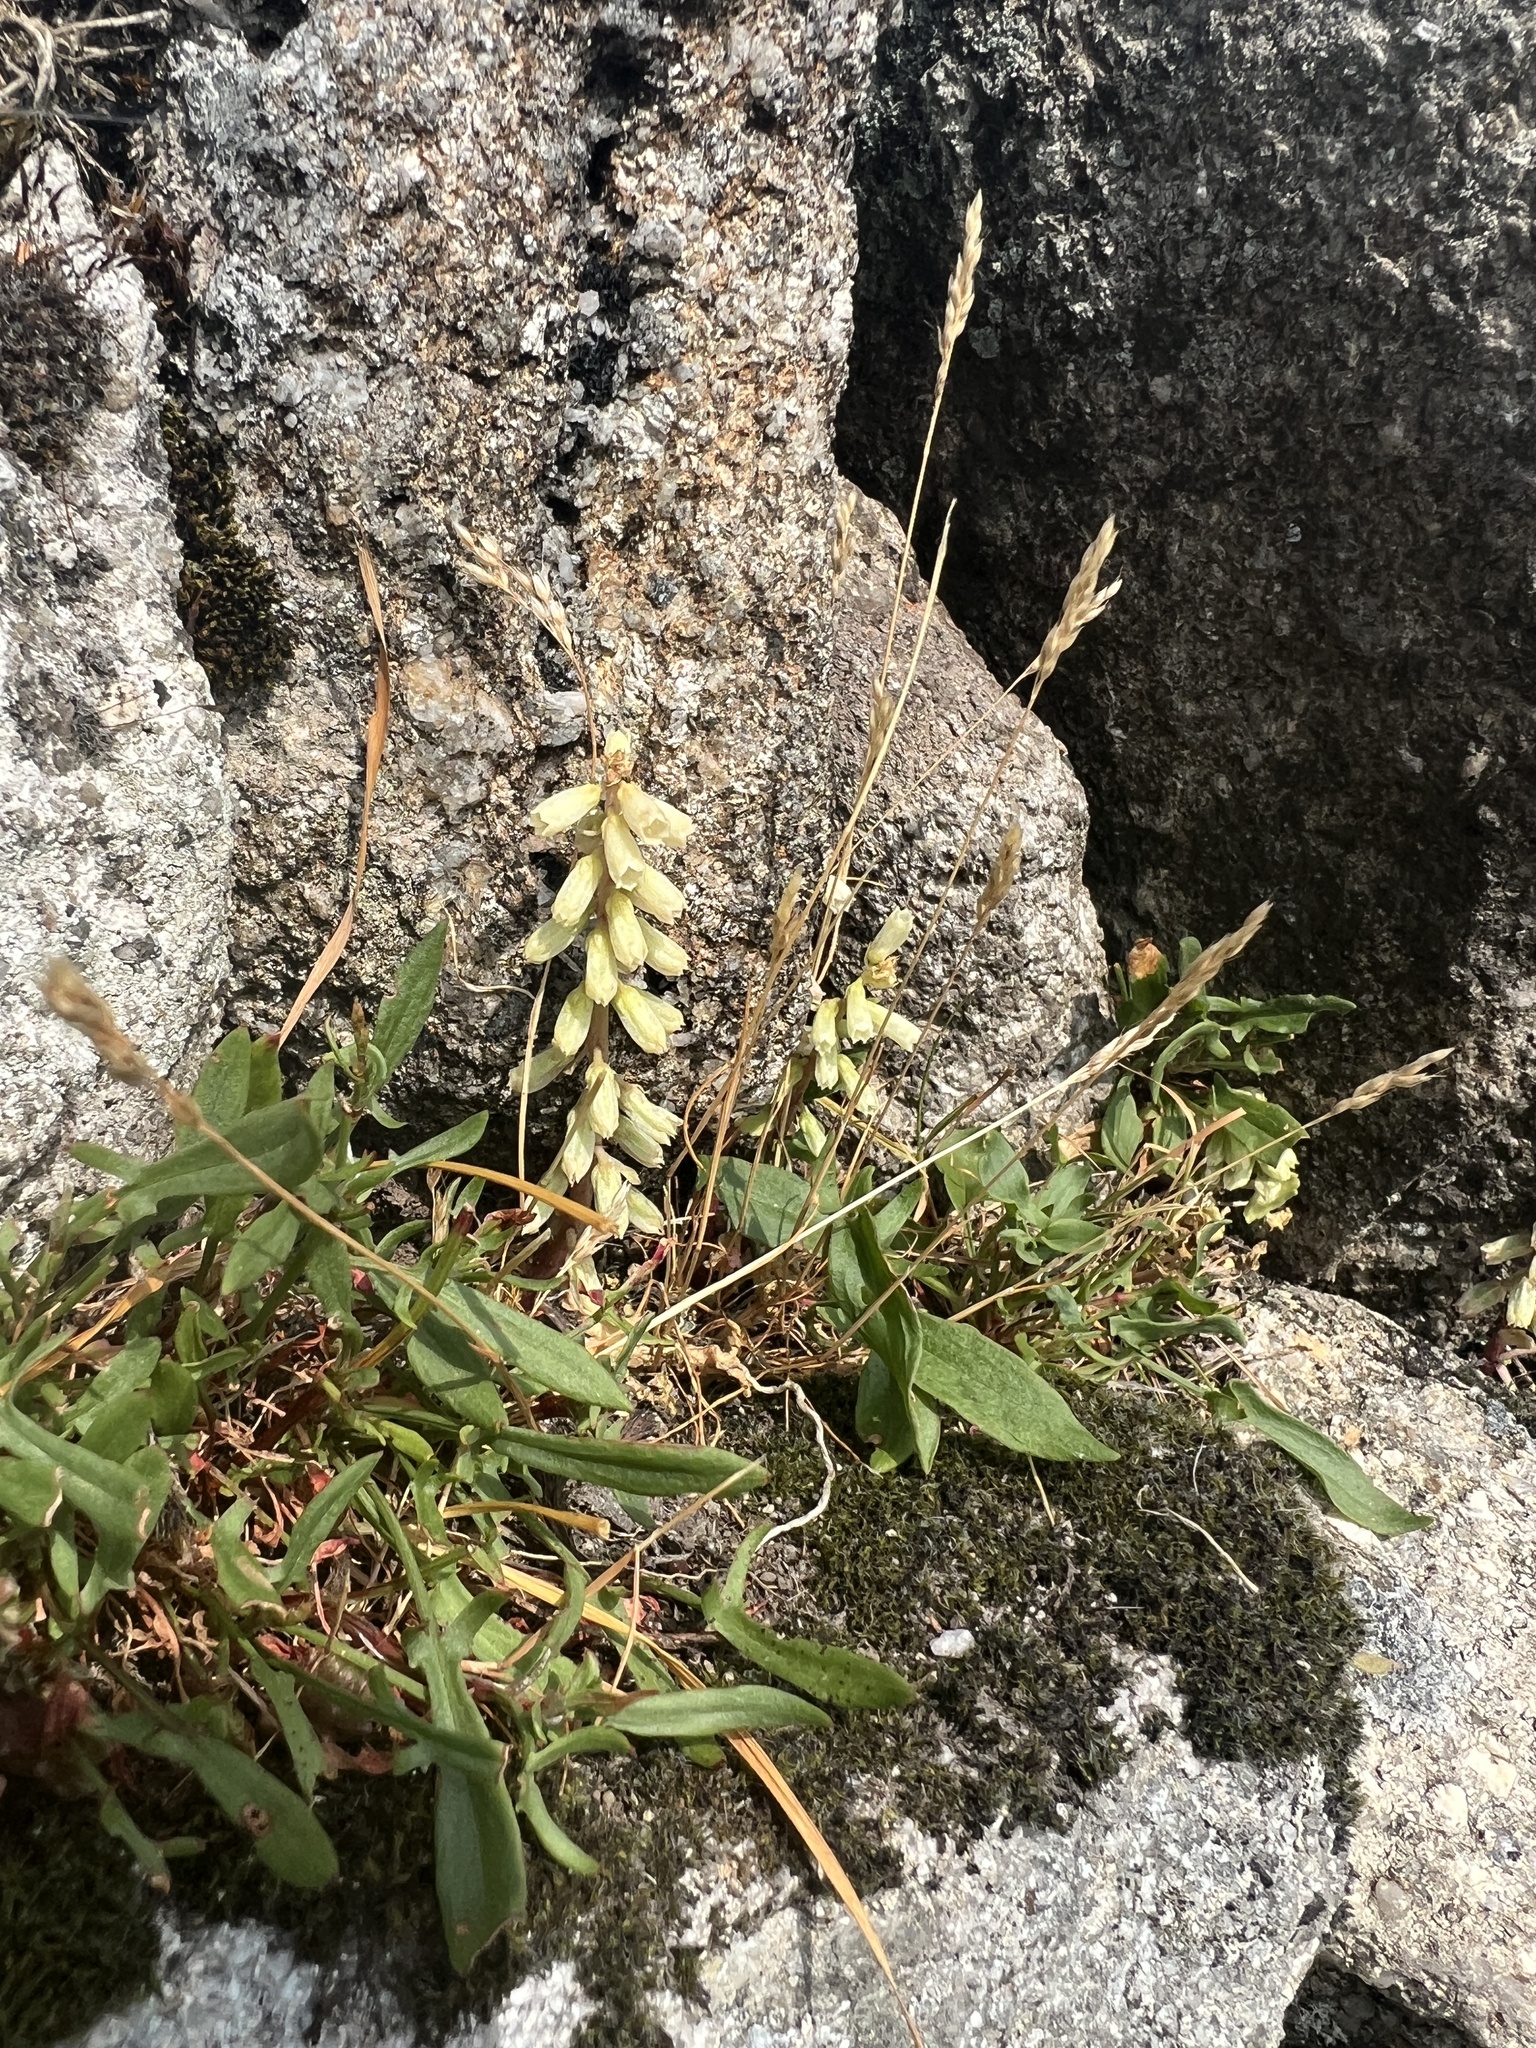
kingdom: Plantae
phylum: Tracheophyta
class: Magnoliopsida
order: Saxifragales
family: Crassulaceae
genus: Umbilicus
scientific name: Umbilicus rupestris
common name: Navelwort
